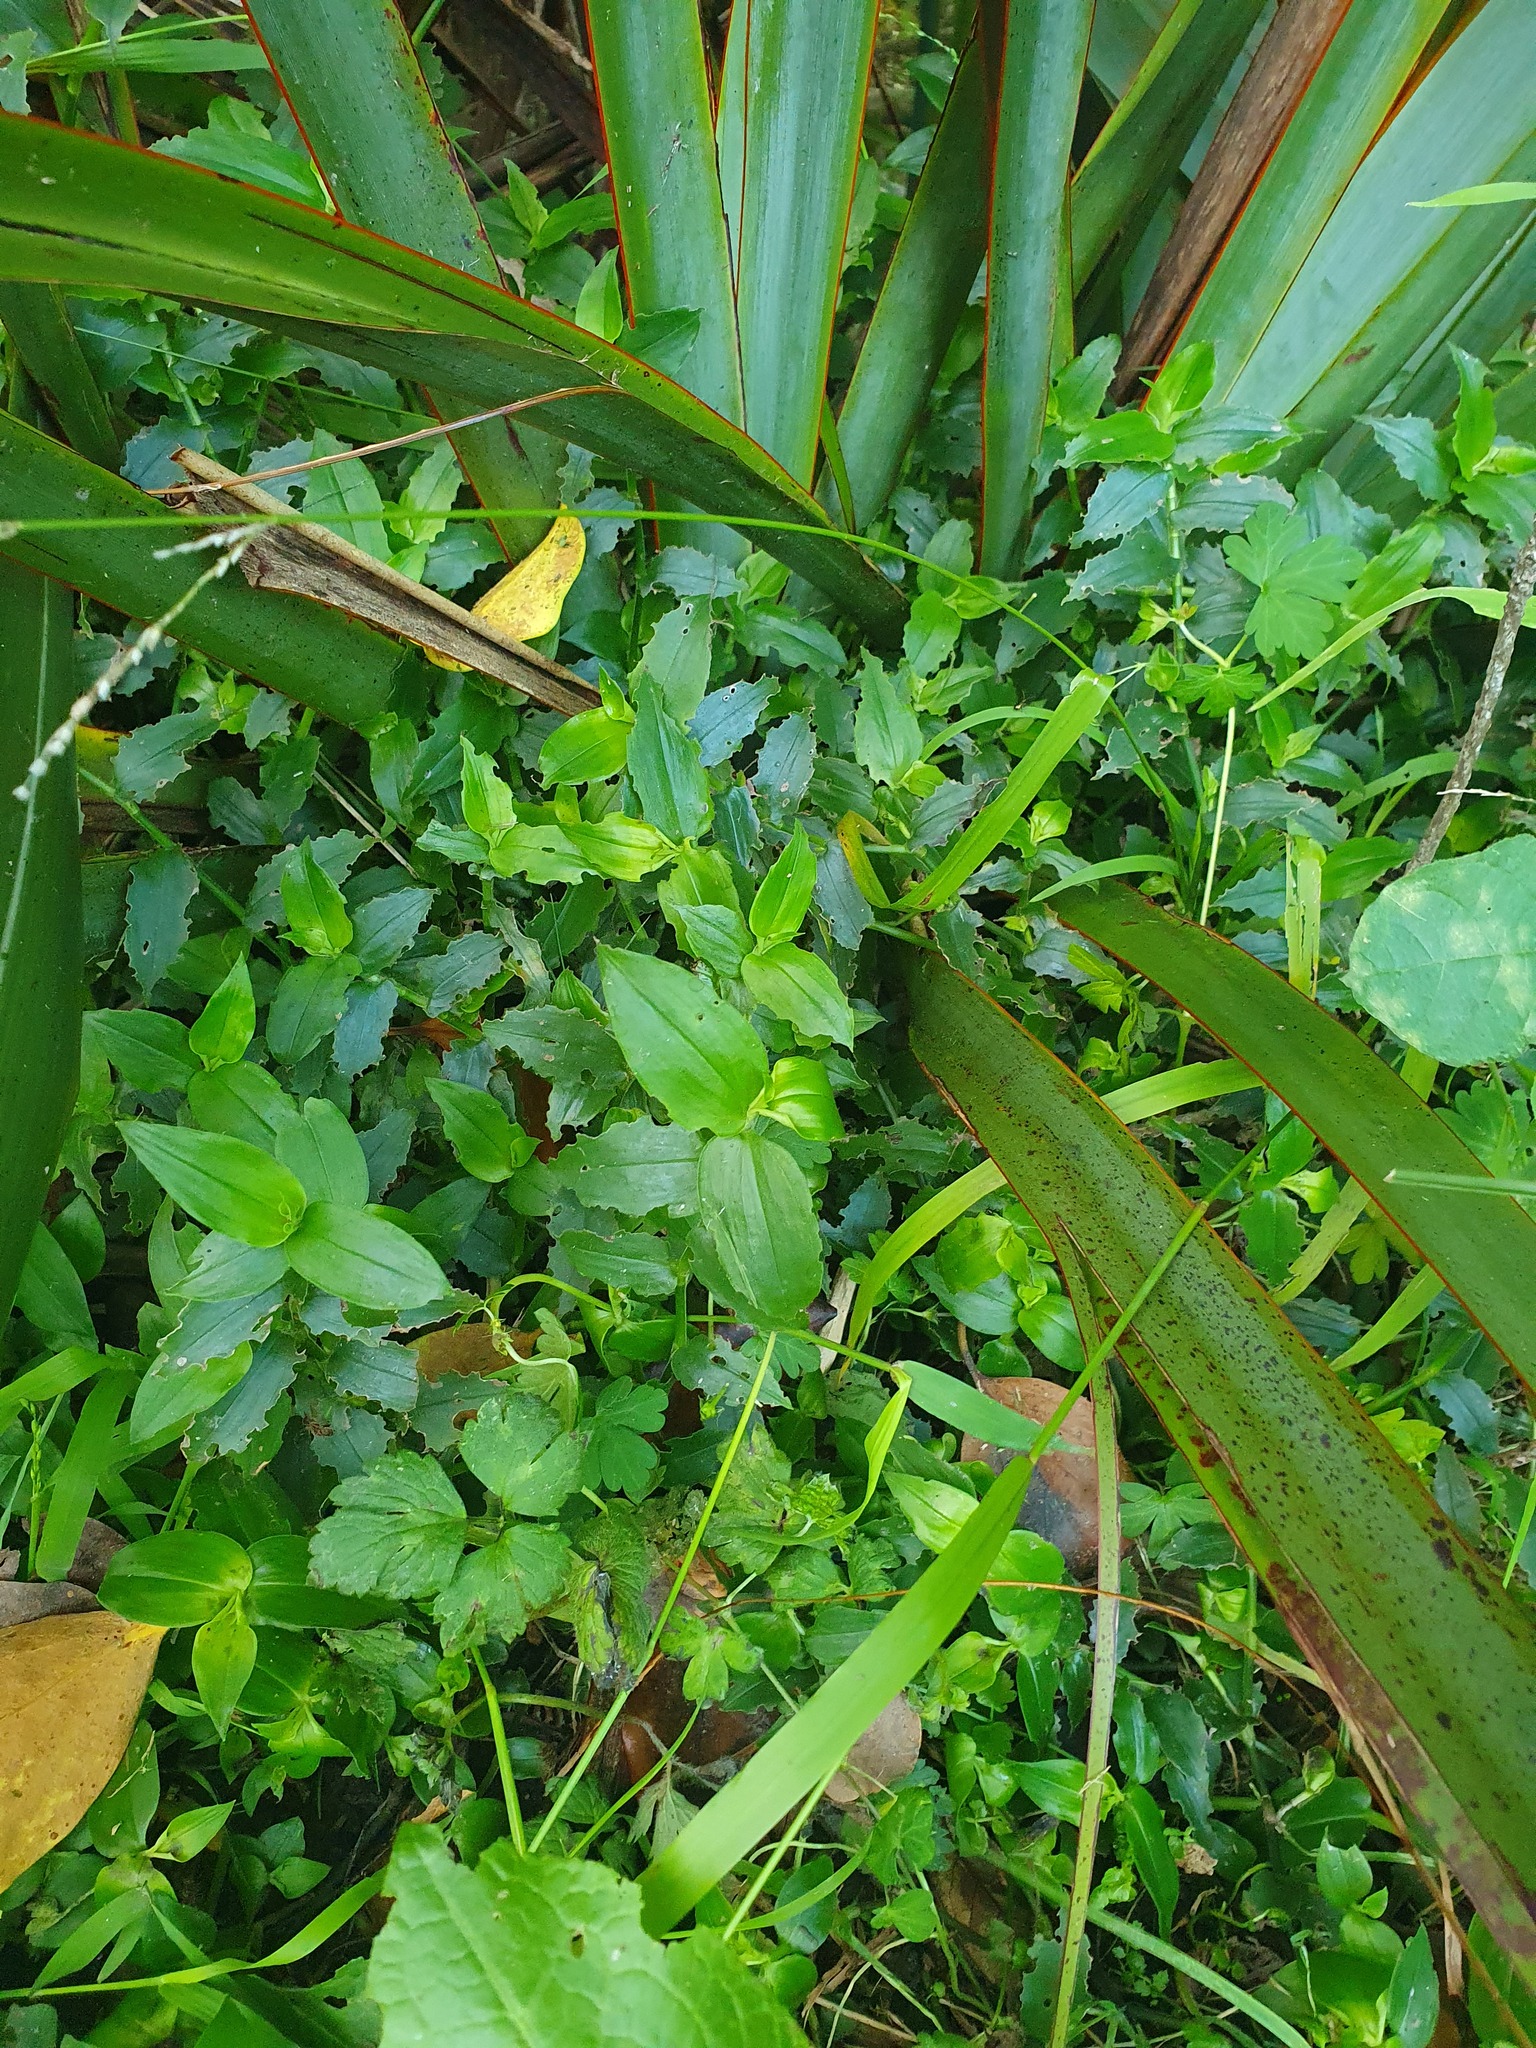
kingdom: Plantae
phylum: Tracheophyta
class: Liliopsida
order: Commelinales
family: Commelinaceae
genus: Tradescantia
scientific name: Tradescantia fluminensis
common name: Wandering-jew
